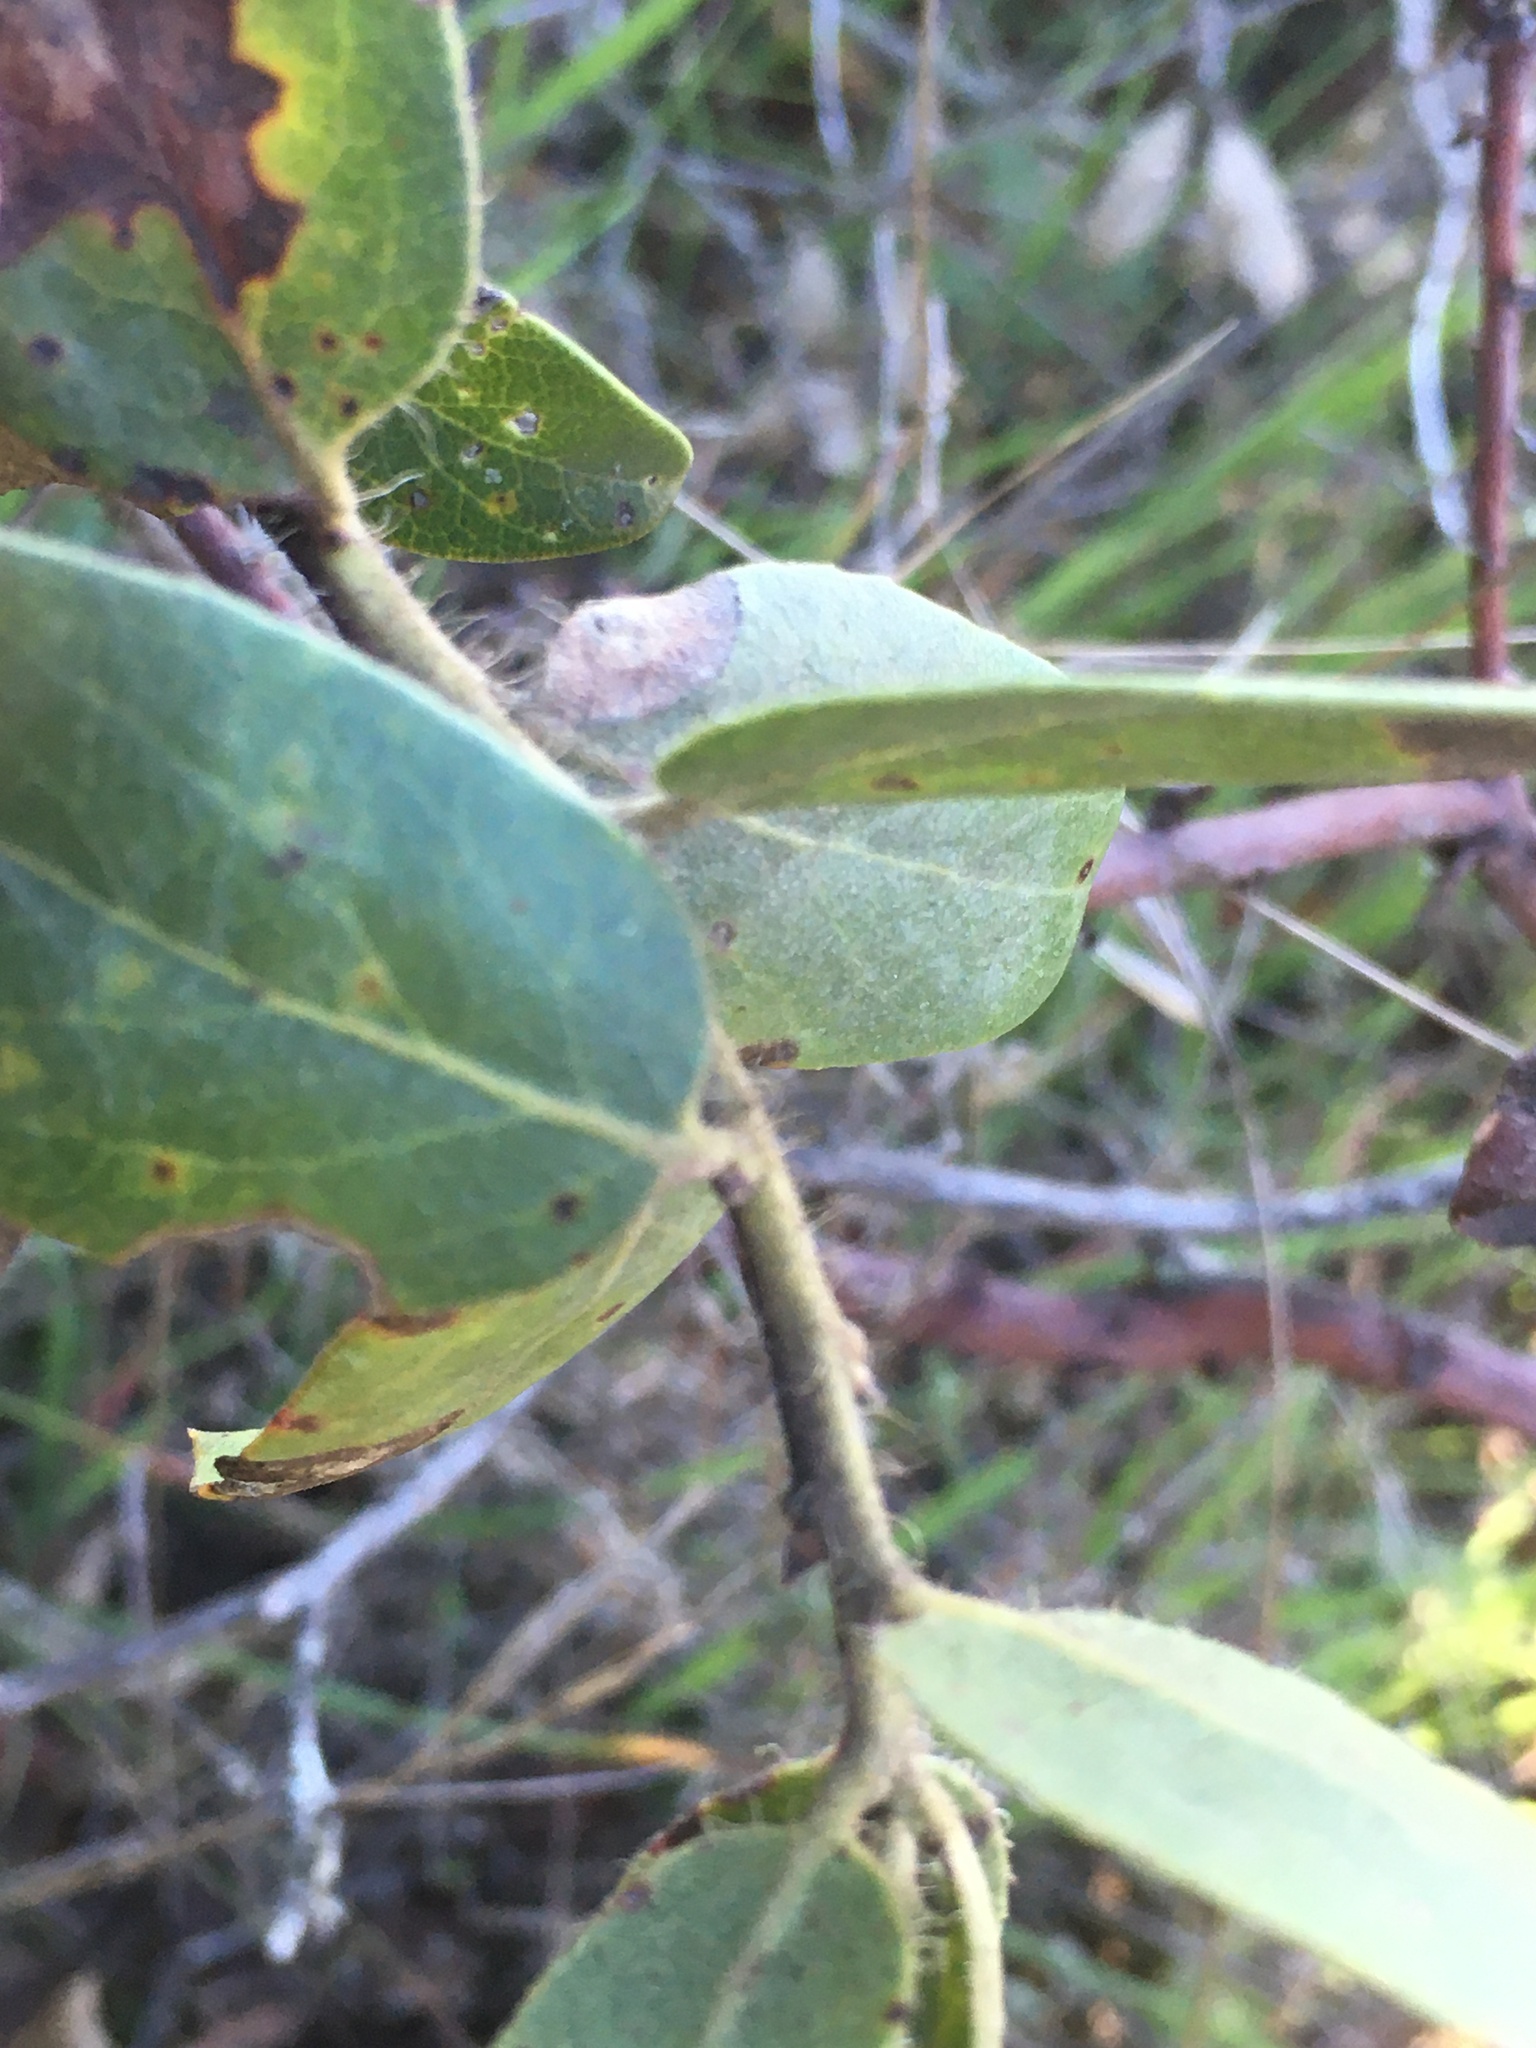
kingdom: Plantae
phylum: Tracheophyta
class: Magnoliopsida
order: Ericales
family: Ericaceae
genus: Arctostaphylos
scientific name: Arctostaphylos crustacea
